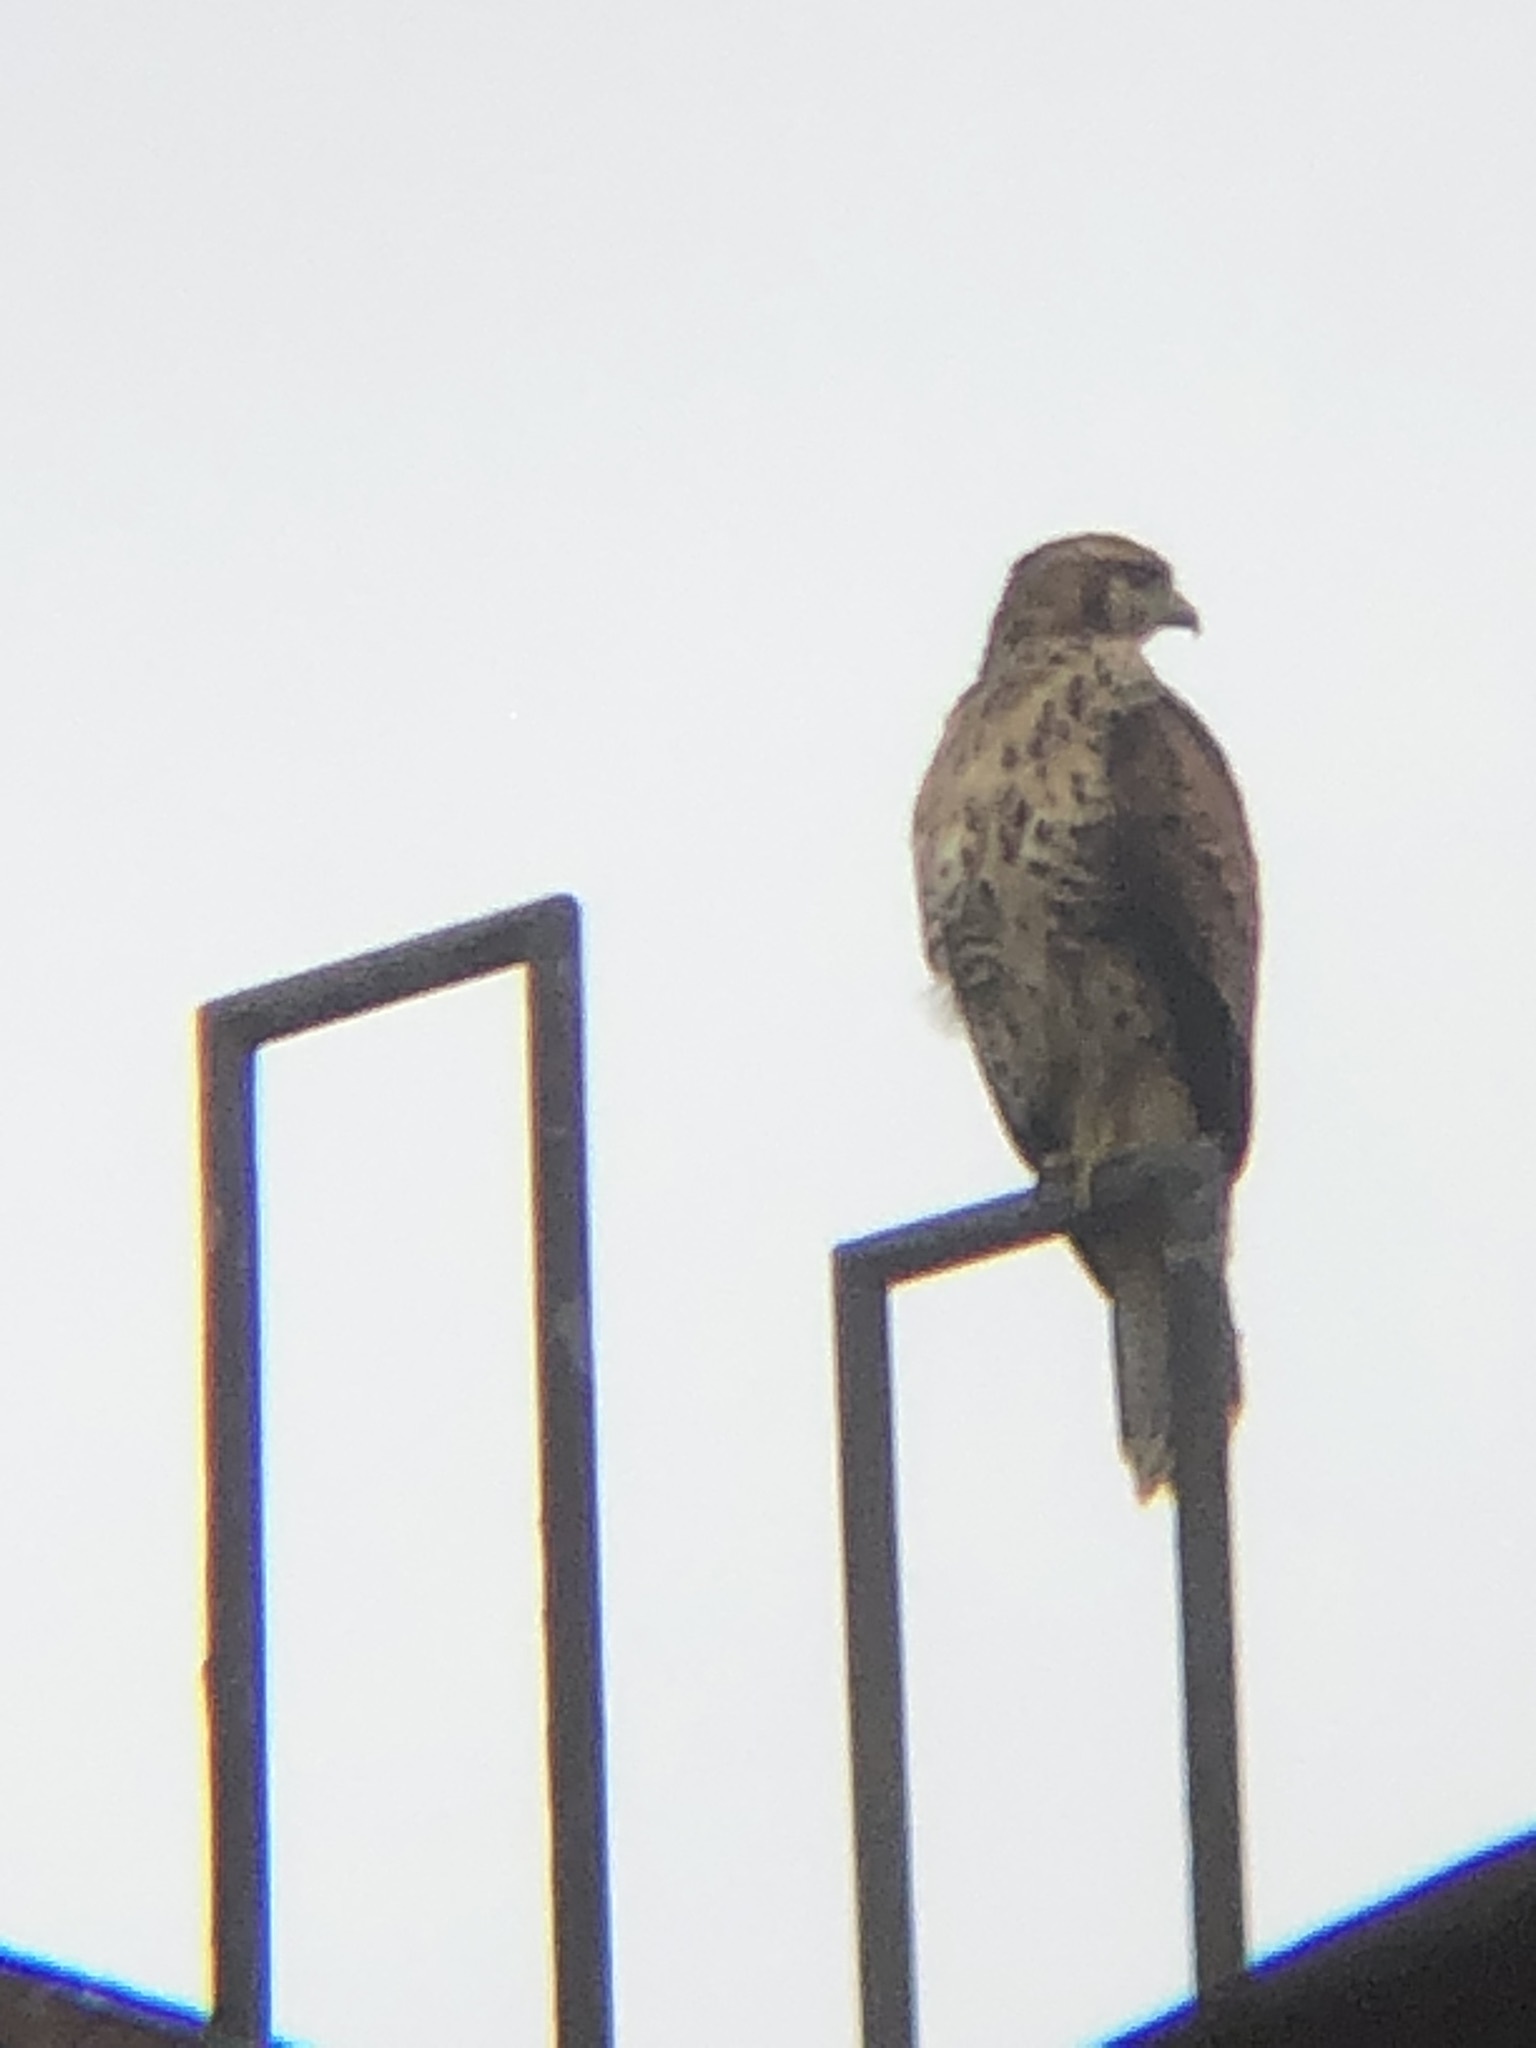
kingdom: Animalia
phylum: Chordata
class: Aves
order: Accipitriformes
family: Accipitridae
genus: Parabuteo
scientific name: Parabuteo unicinctus
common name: Harris's hawk
